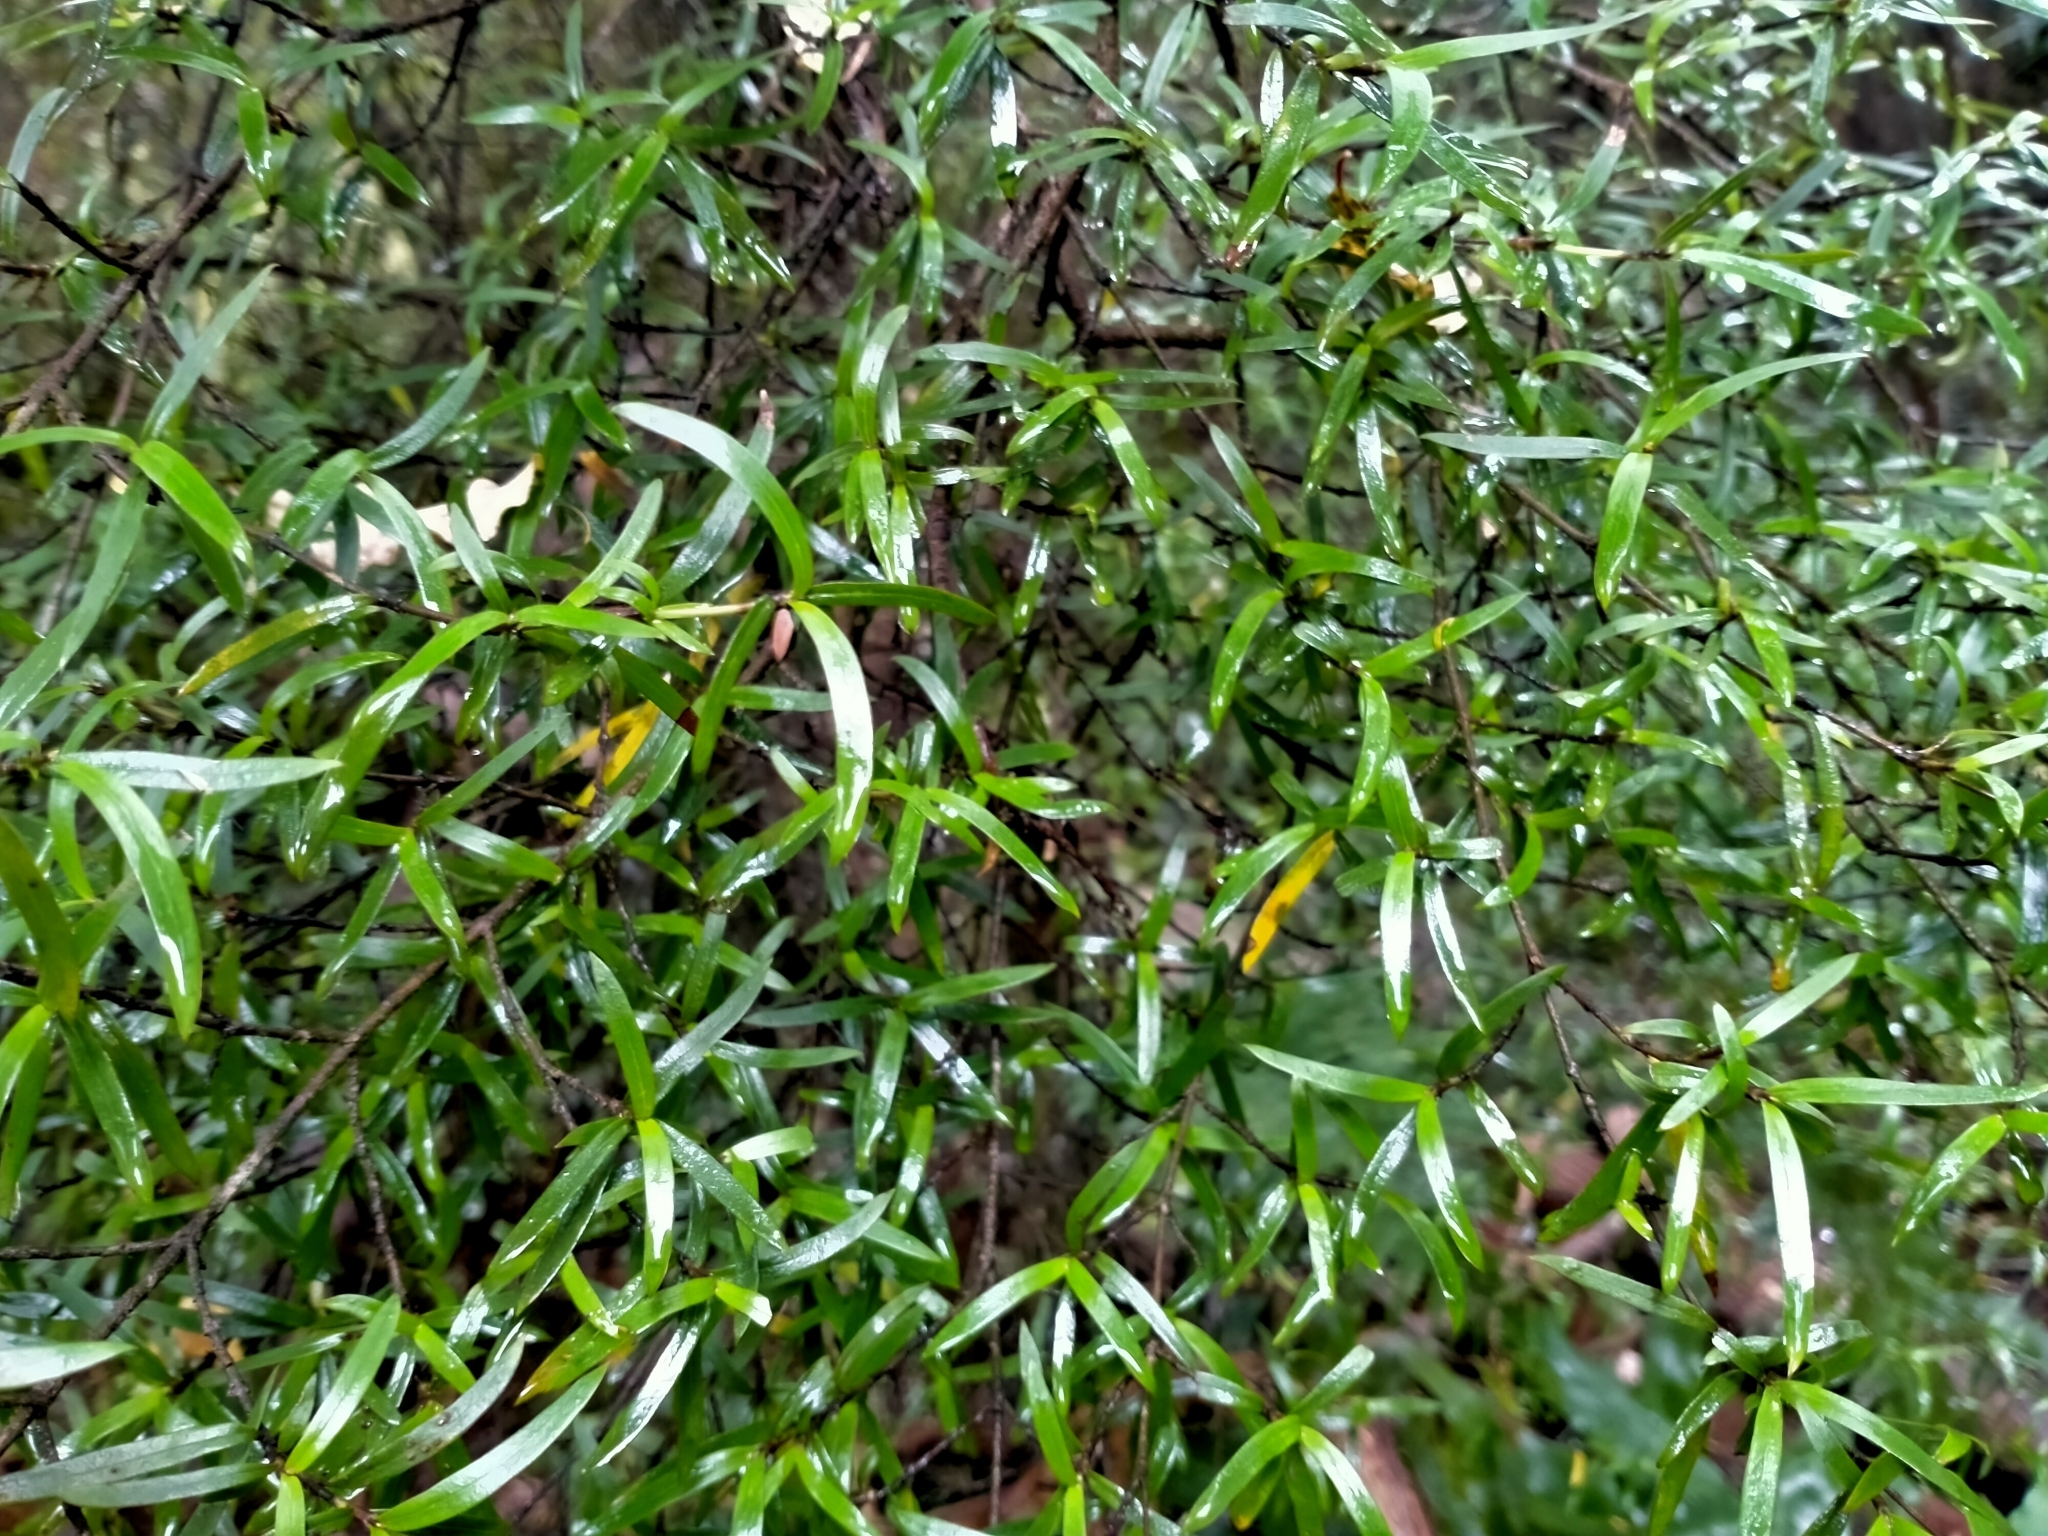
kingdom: Plantae
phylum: Tracheophyta
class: Magnoliopsida
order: Gentianales
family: Rubiaceae
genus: Coprosma
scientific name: Coprosma linariifolia
